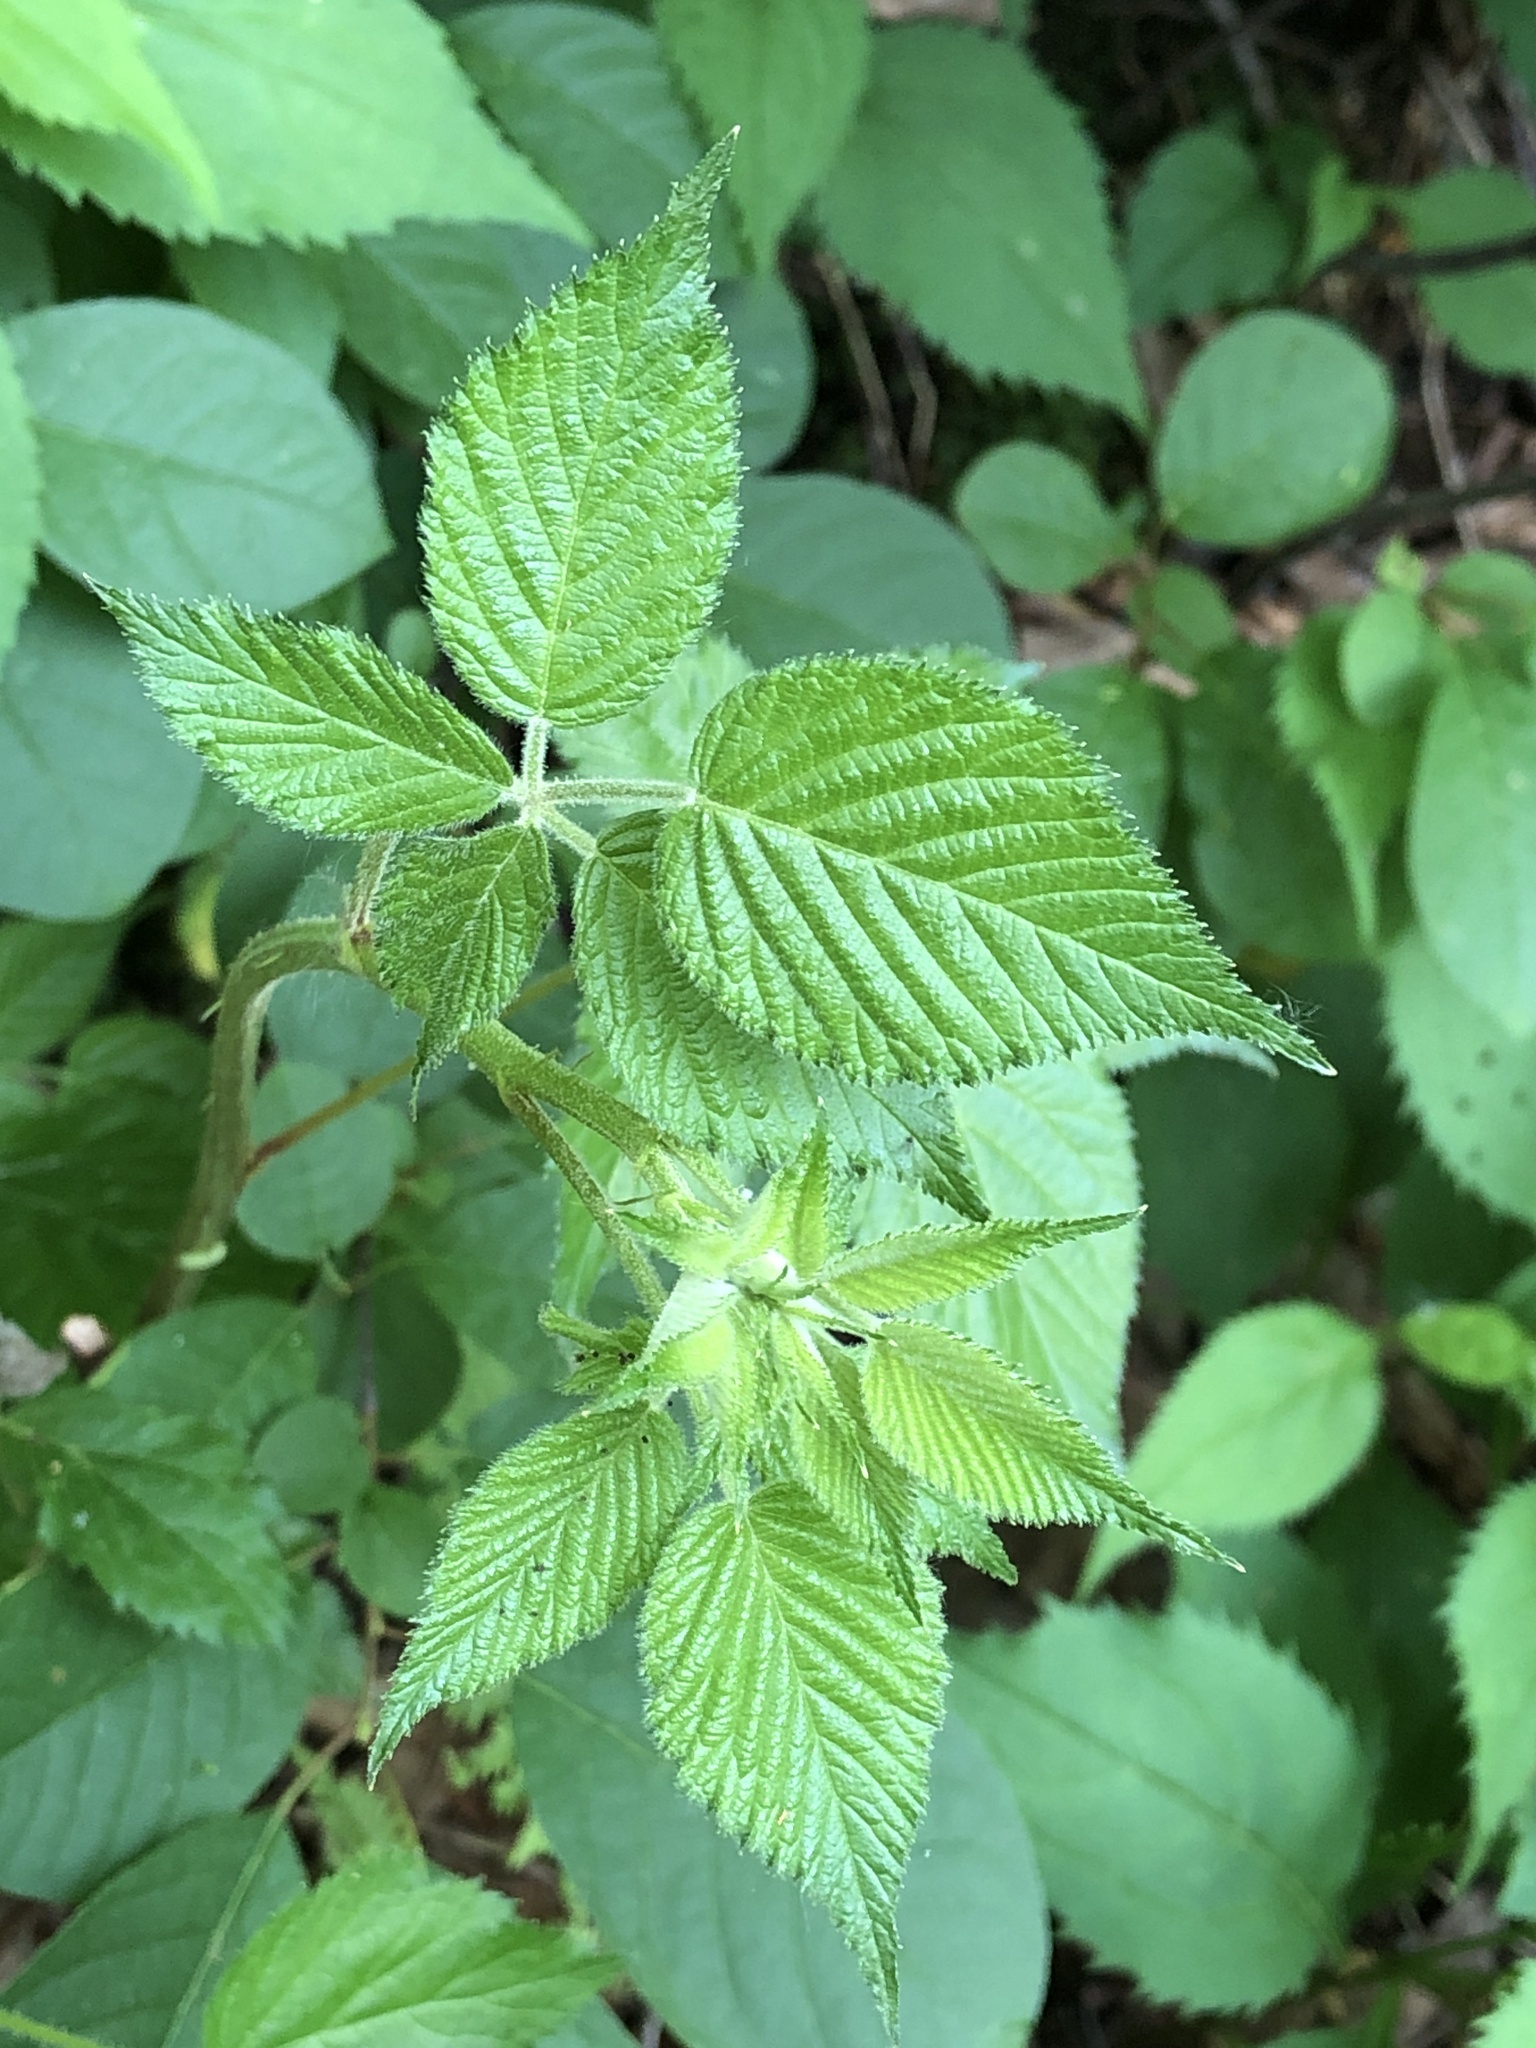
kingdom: Plantae
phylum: Tracheophyta
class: Magnoliopsida
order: Rosales
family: Rosaceae
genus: Rubus
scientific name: Rubus occidentalis
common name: Black raspberry
